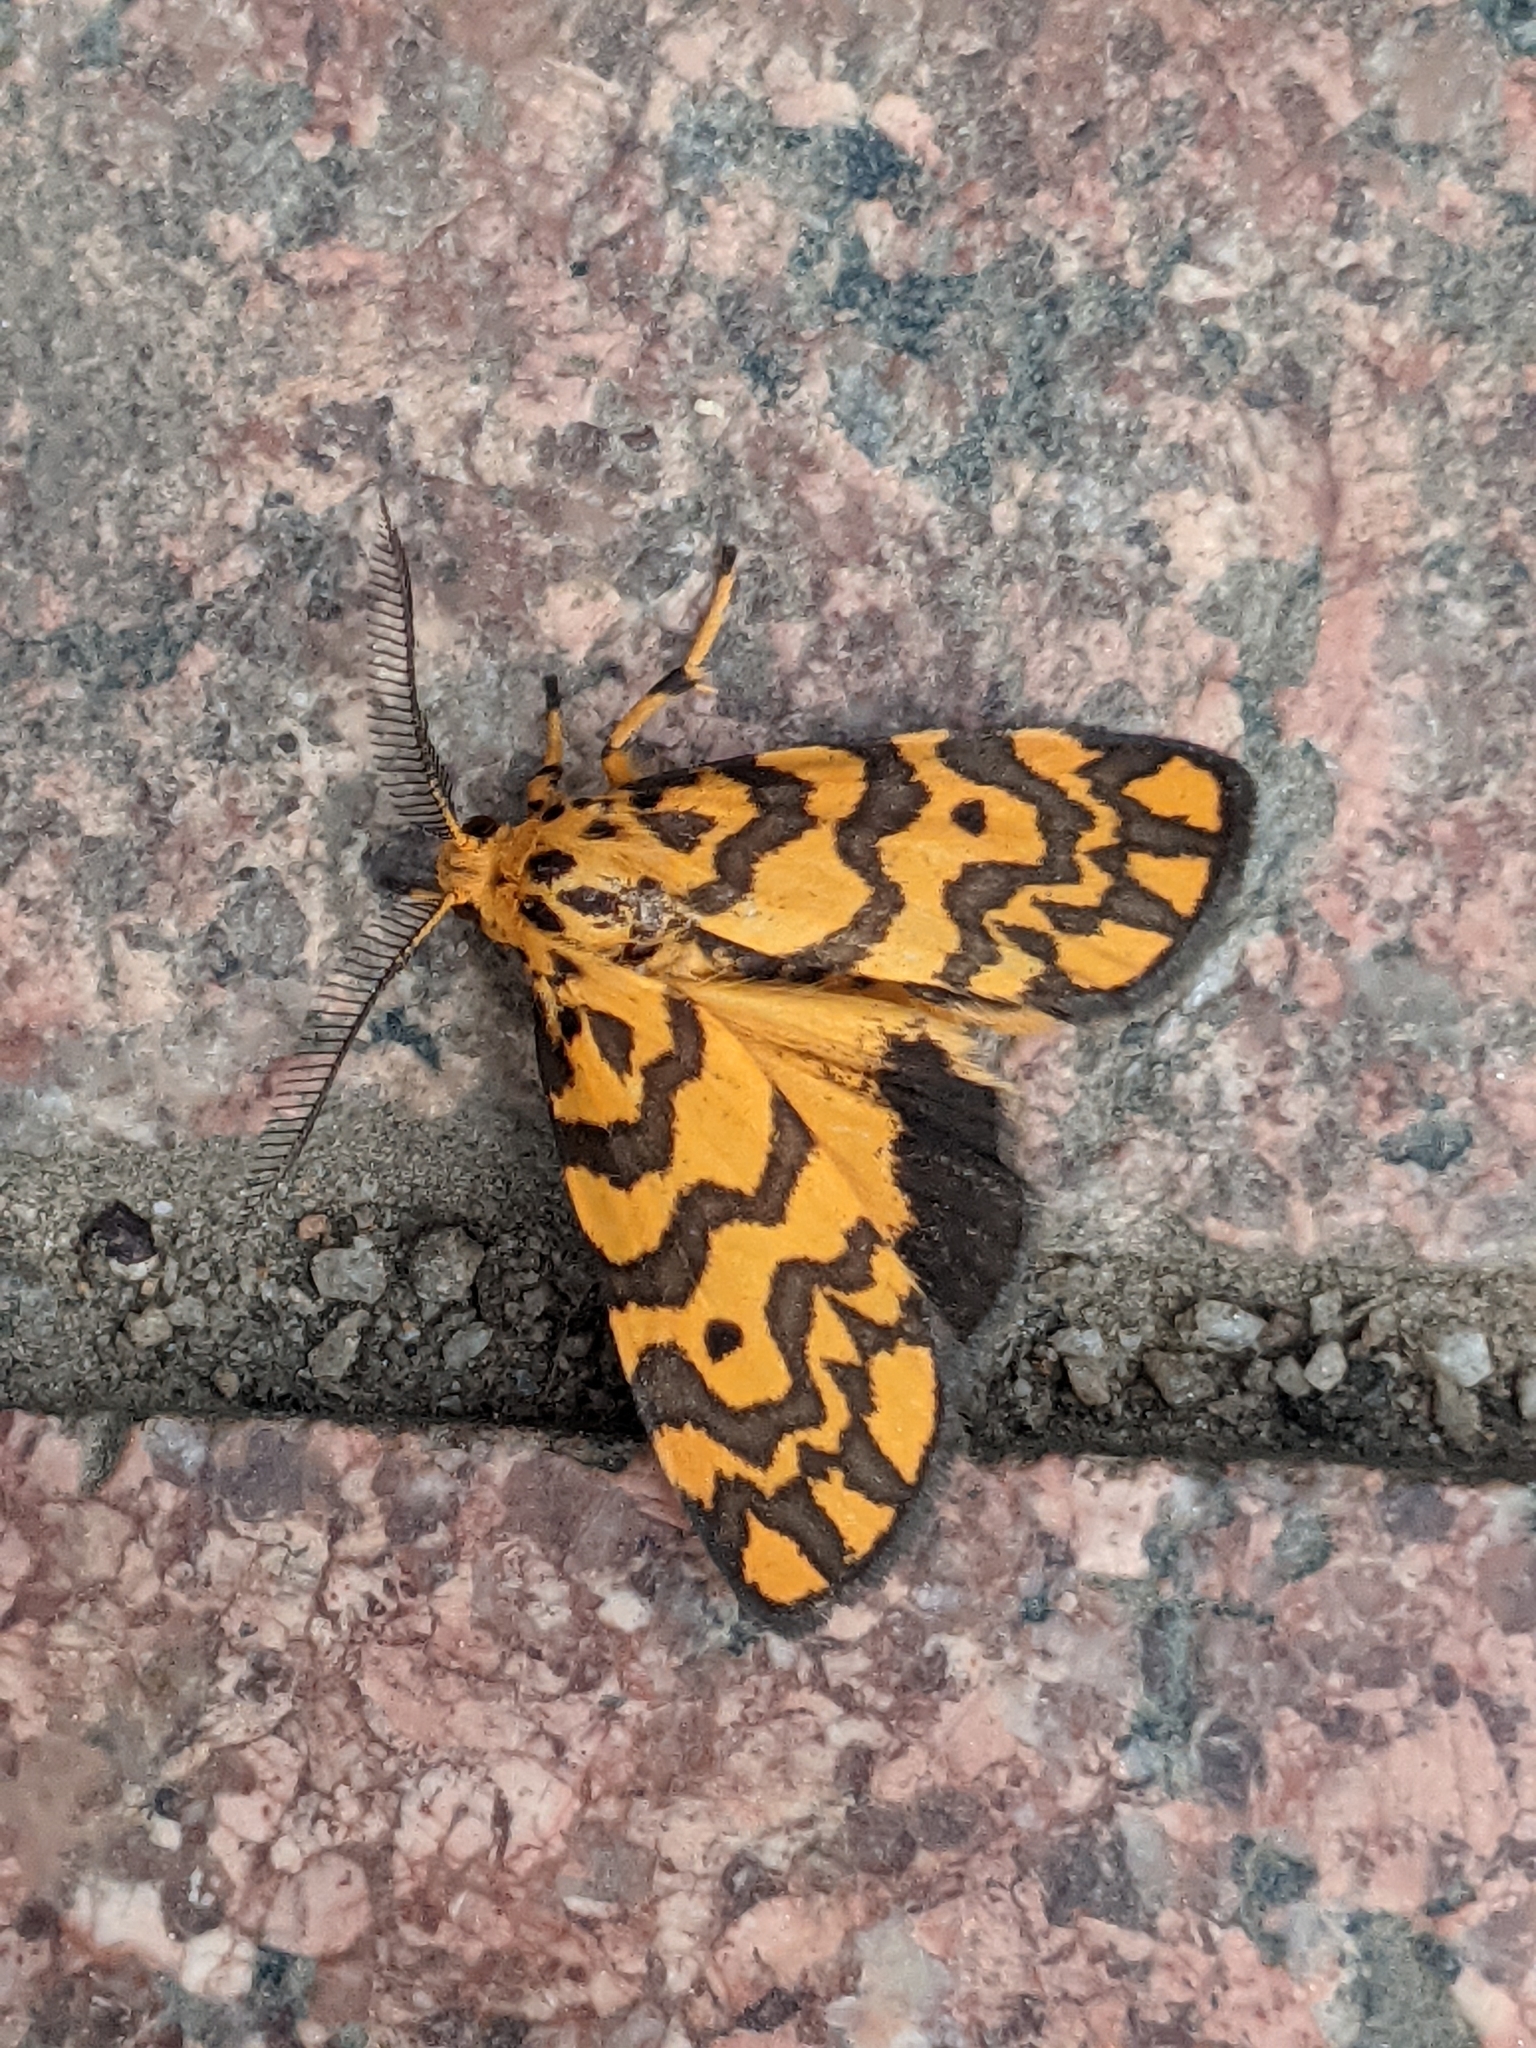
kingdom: Animalia
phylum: Arthropoda
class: Insecta
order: Lepidoptera
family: Erebidae
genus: Nepita
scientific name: Nepita conferta
